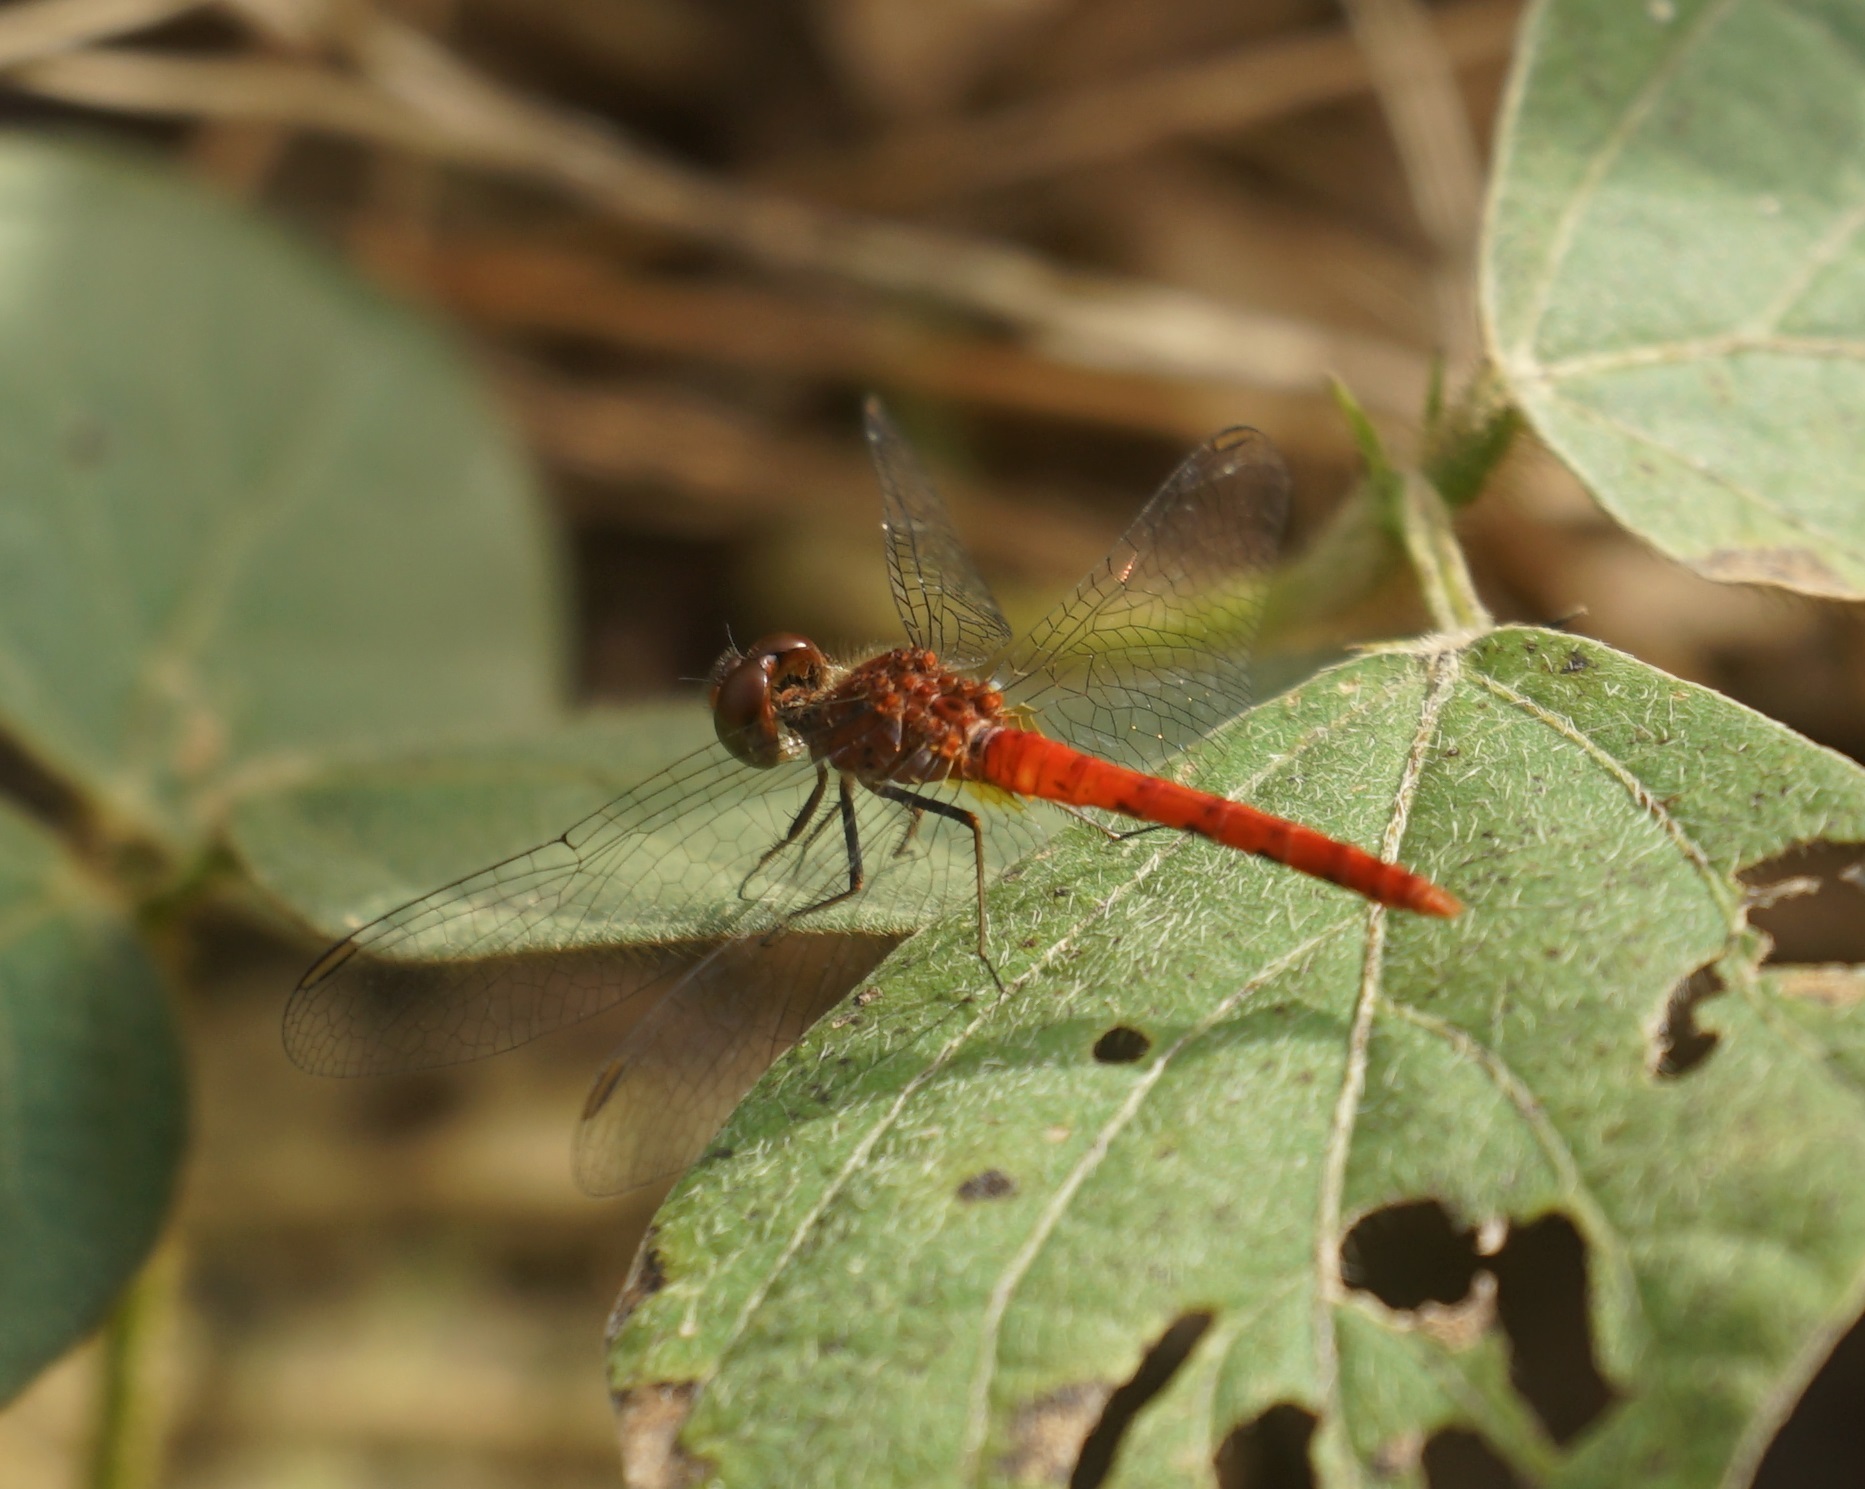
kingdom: Animalia
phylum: Arthropoda
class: Insecta
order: Odonata
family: Libellulidae
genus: Nannodiplax
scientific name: Nannodiplax rubra
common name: Pygmy percher
